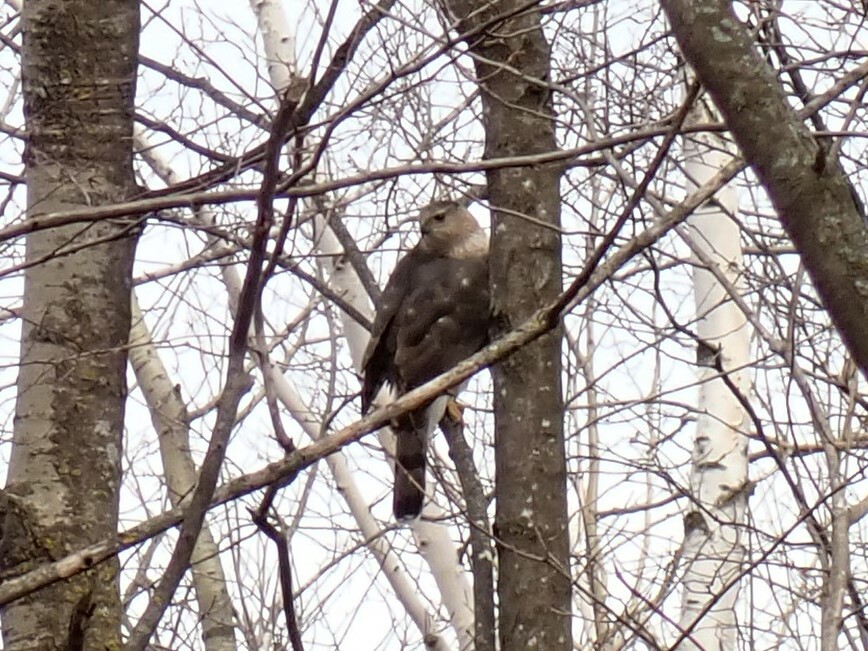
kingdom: Animalia
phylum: Chordata
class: Aves
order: Accipitriformes
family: Accipitridae
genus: Accipiter
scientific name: Accipiter cooperii
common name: Cooper's hawk
